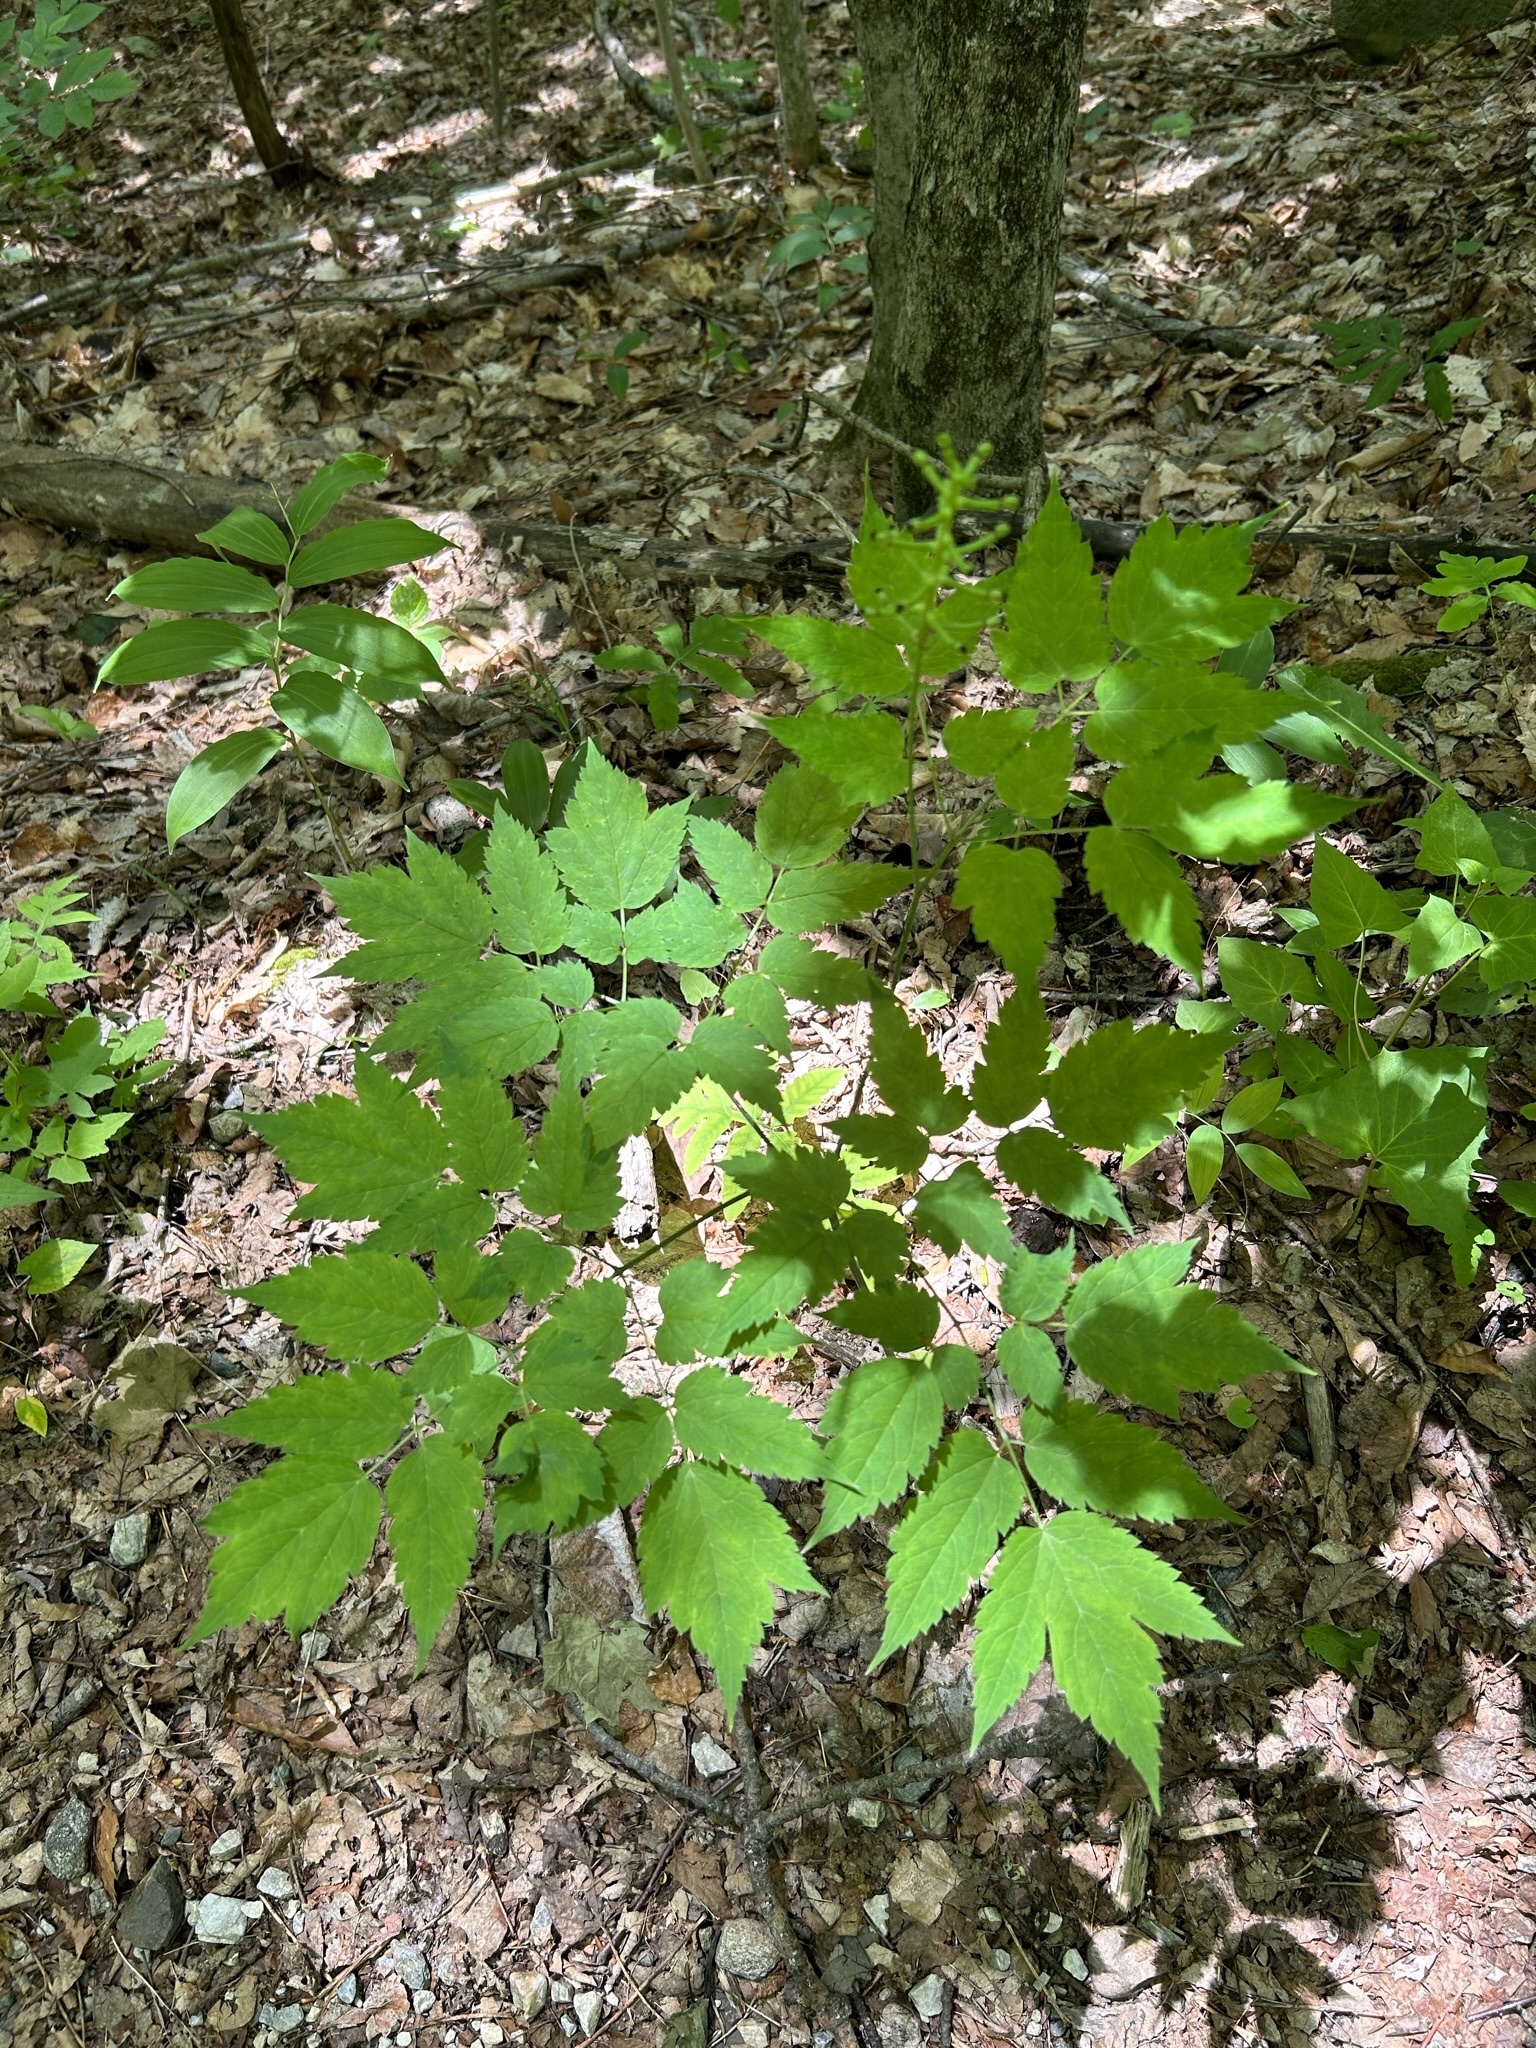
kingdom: Plantae
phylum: Tracheophyta
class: Magnoliopsida
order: Ranunculales
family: Ranunculaceae
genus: Actaea
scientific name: Actaea pachypoda
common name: Doll's-eyes
